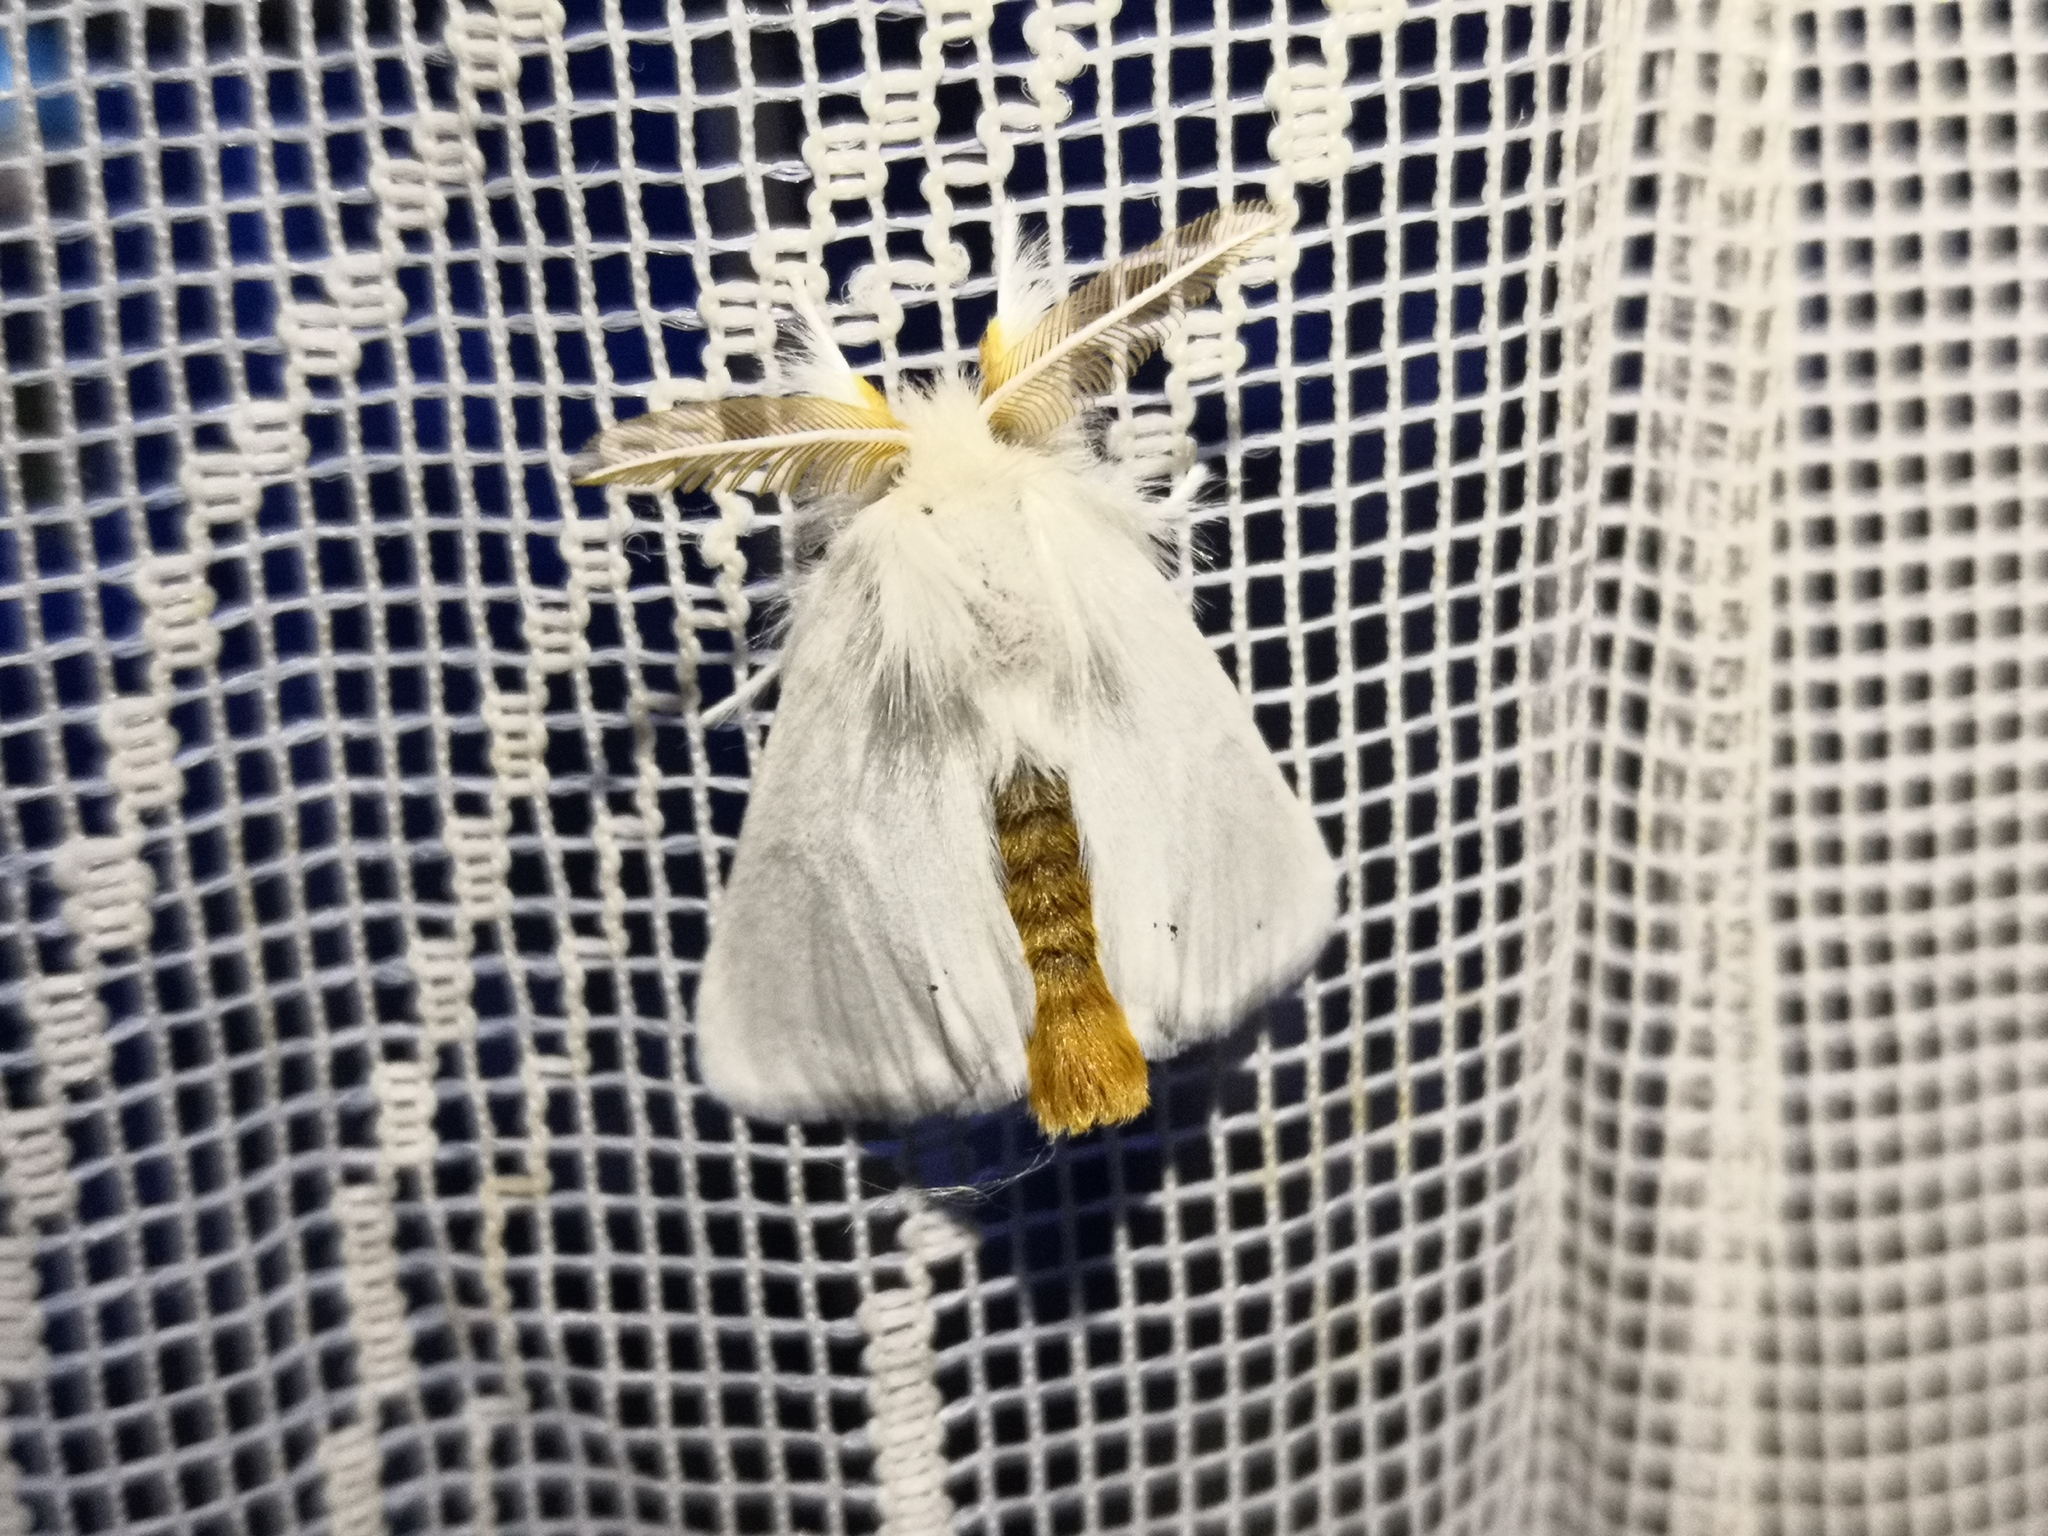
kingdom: Animalia
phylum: Arthropoda
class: Insecta
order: Lepidoptera
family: Erebidae
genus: Euproctis
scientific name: Euproctis chrysorrhoea
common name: Brown-tail
